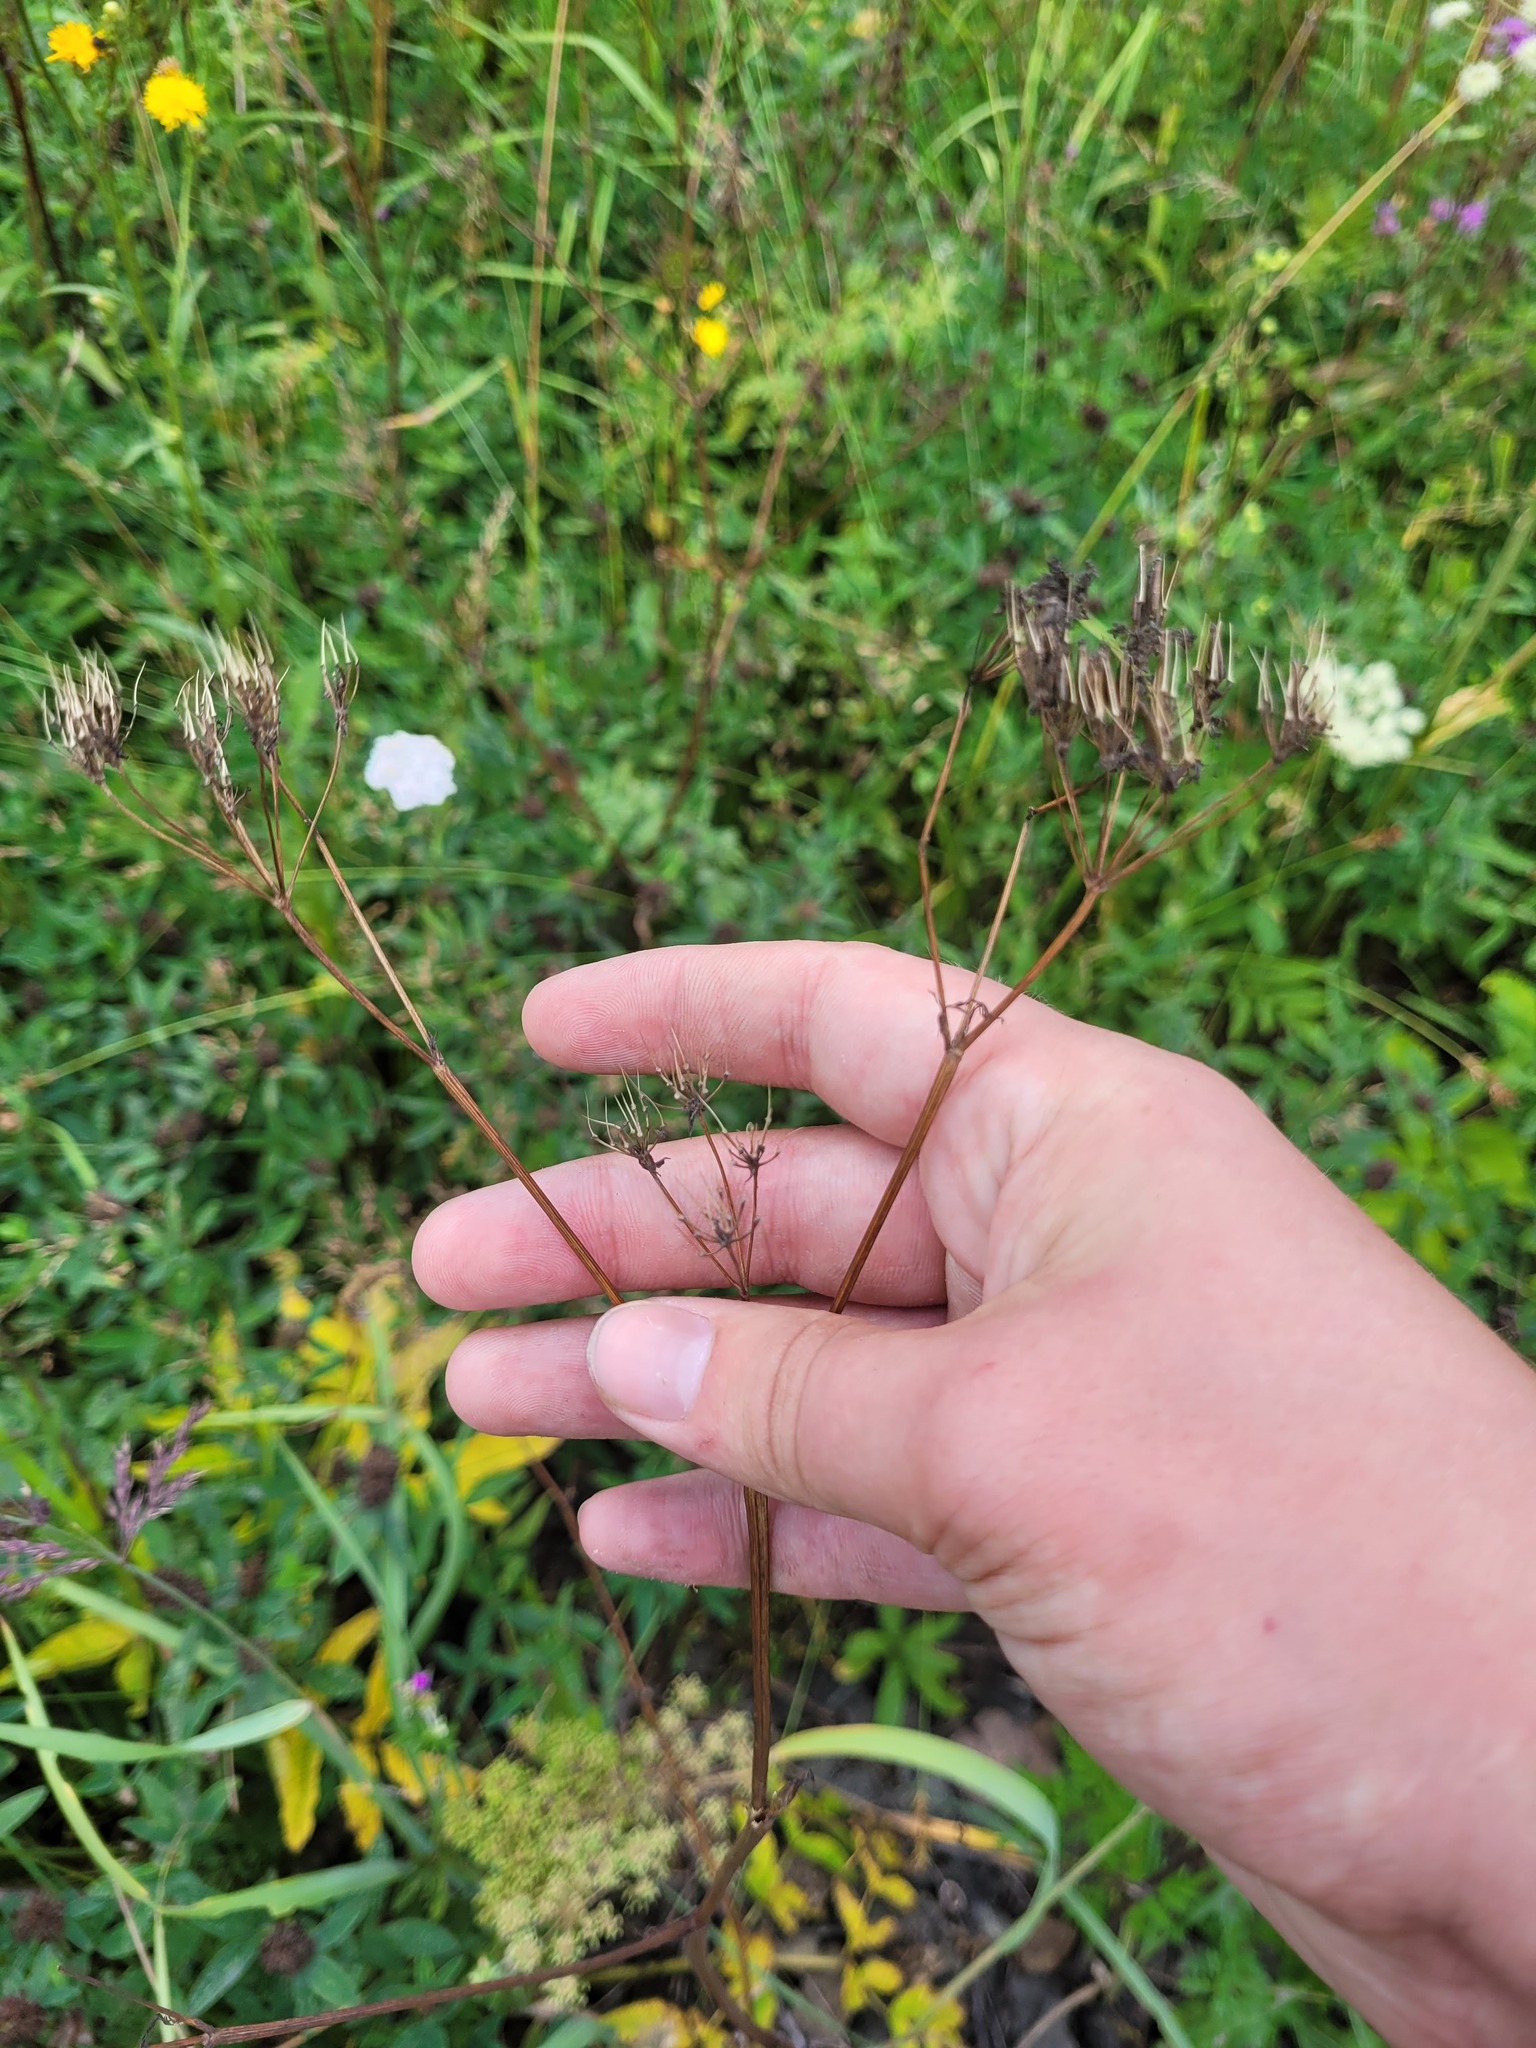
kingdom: Plantae
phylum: Tracheophyta
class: Magnoliopsida
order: Apiales
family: Apiaceae
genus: Anthriscus
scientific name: Anthriscus sylvestris
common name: Cow parsley
